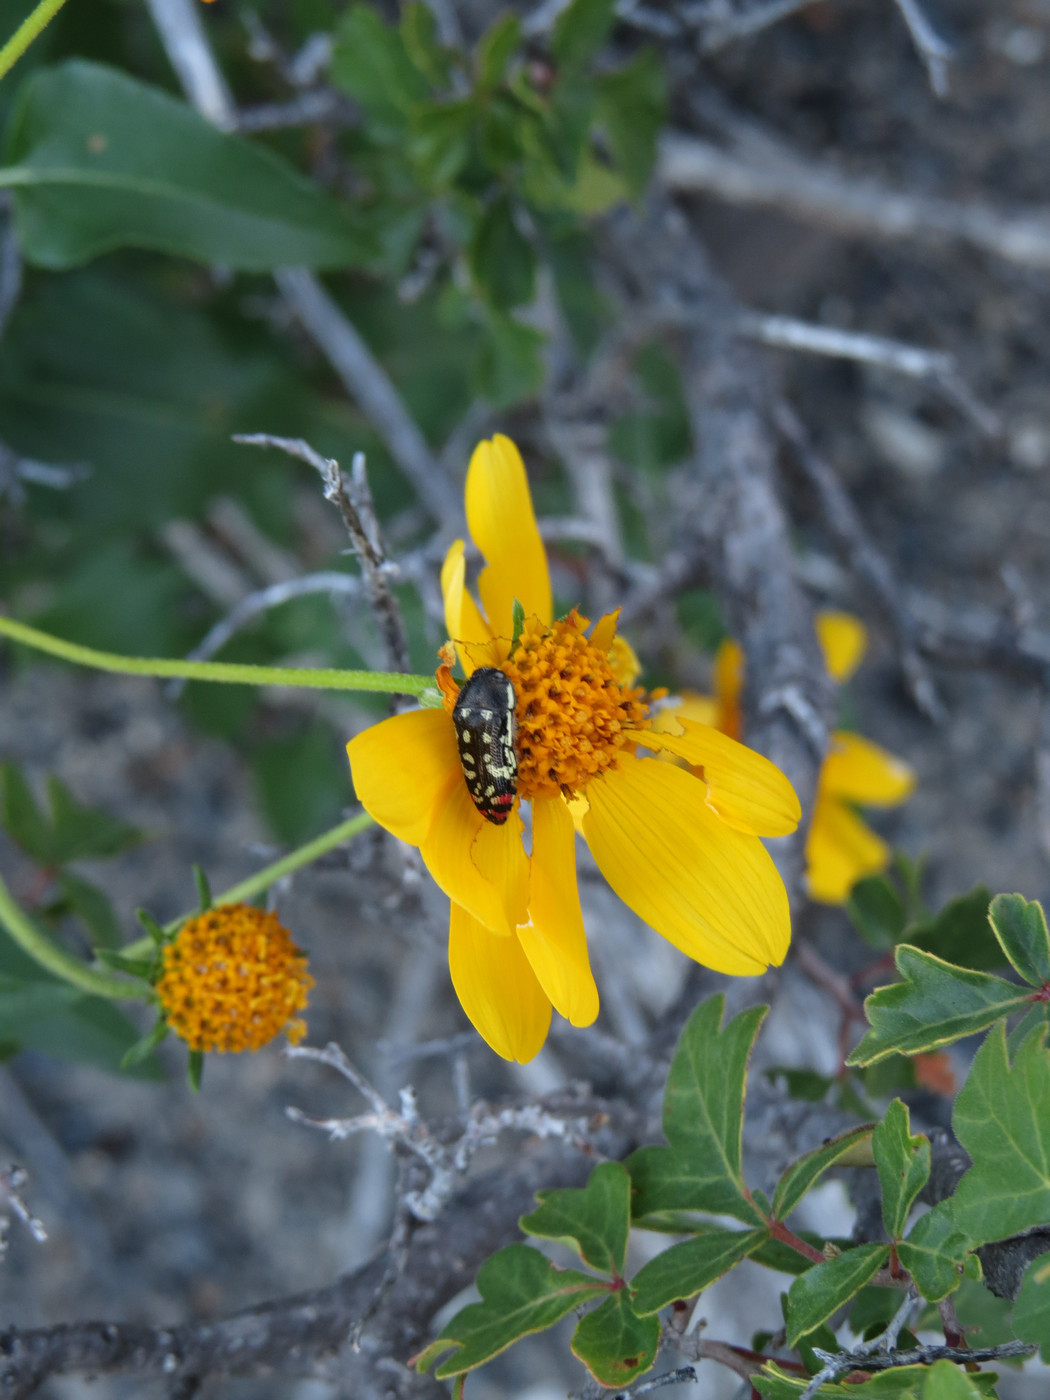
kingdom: Animalia
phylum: Arthropoda
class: Insecta
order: Coleoptera
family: Buprestidae
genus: Acmaeodera
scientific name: Acmaeodera opacula
